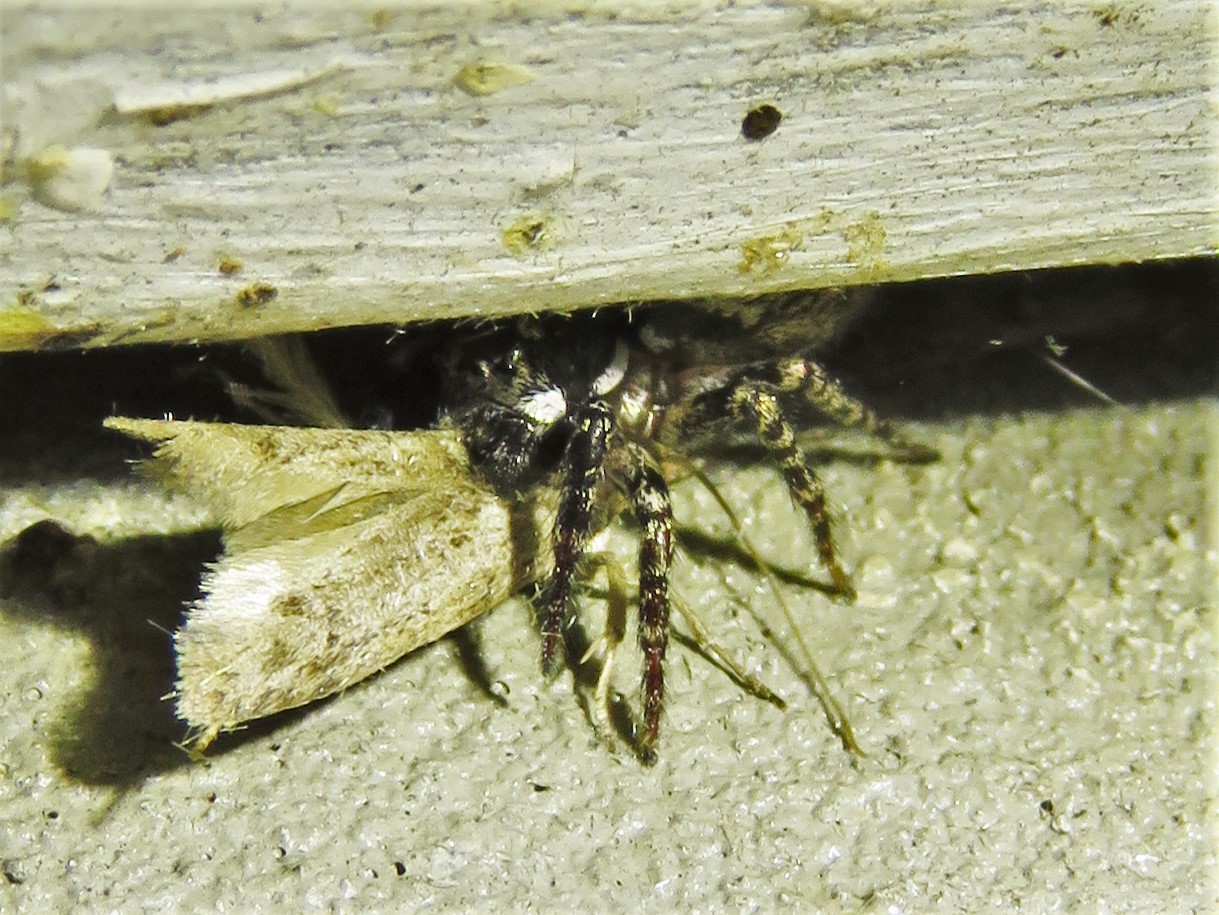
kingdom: Animalia
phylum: Arthropoda
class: Arachnida
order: Araneae
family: Salticidae
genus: Anasaitis
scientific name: Anasaitis canosa
